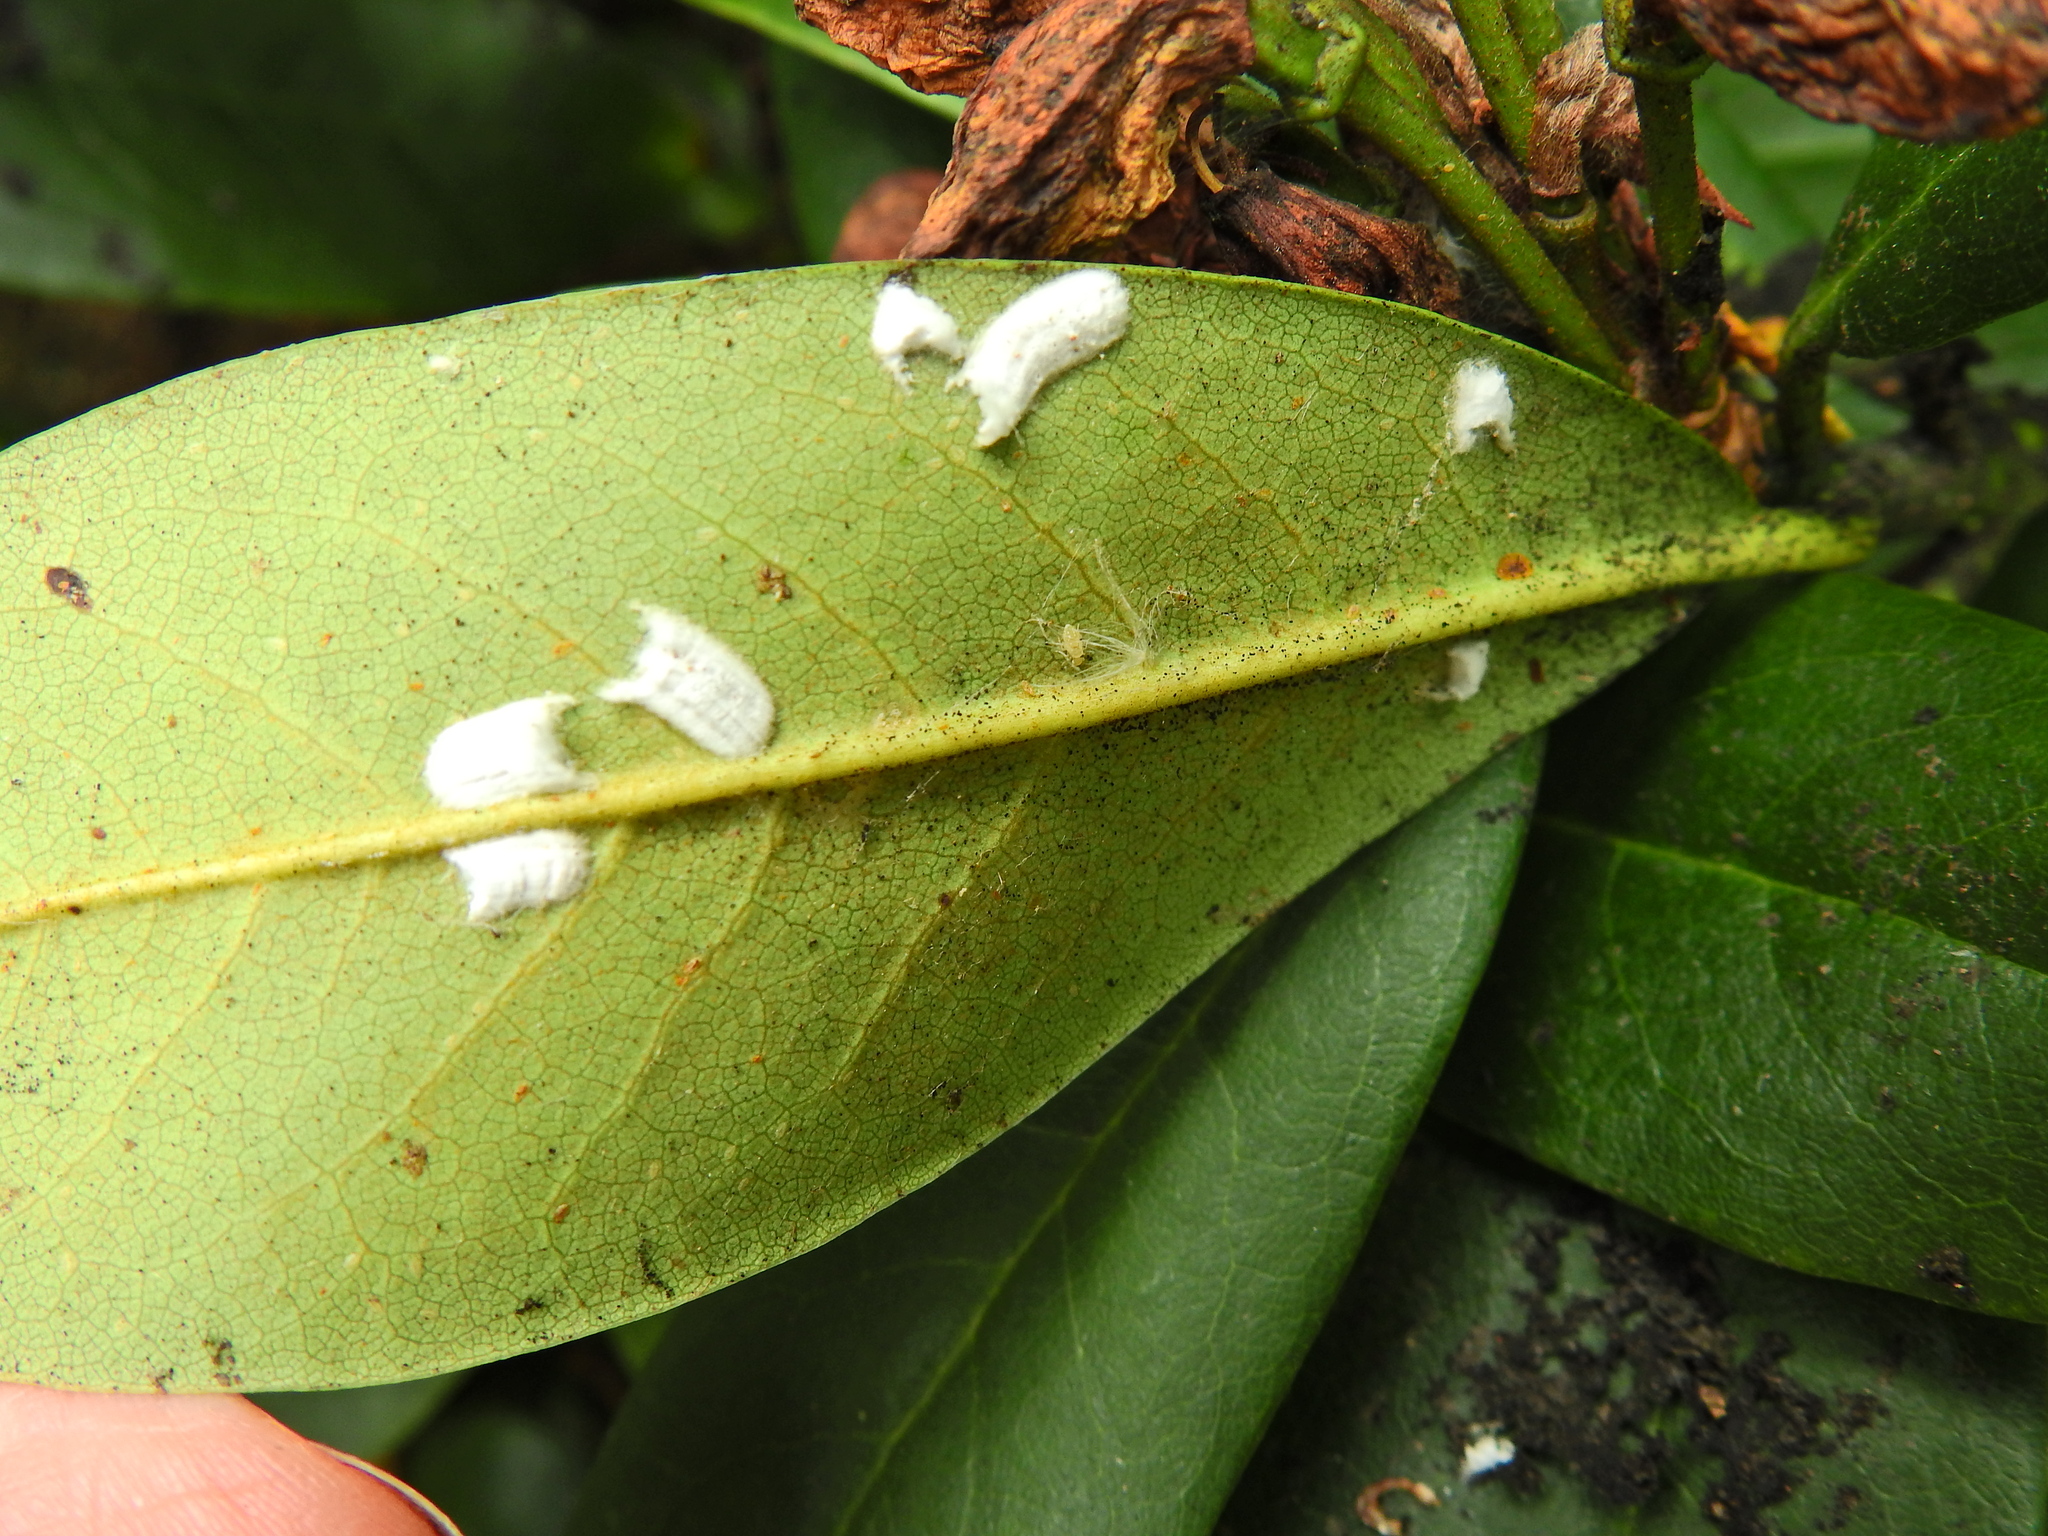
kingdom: Animalia
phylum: Arthropoda
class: Insecta
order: Hemiptera
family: Coccidae
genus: Pulvinaria
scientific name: Pulvinaria floccifera
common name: Cottony camellia scale
